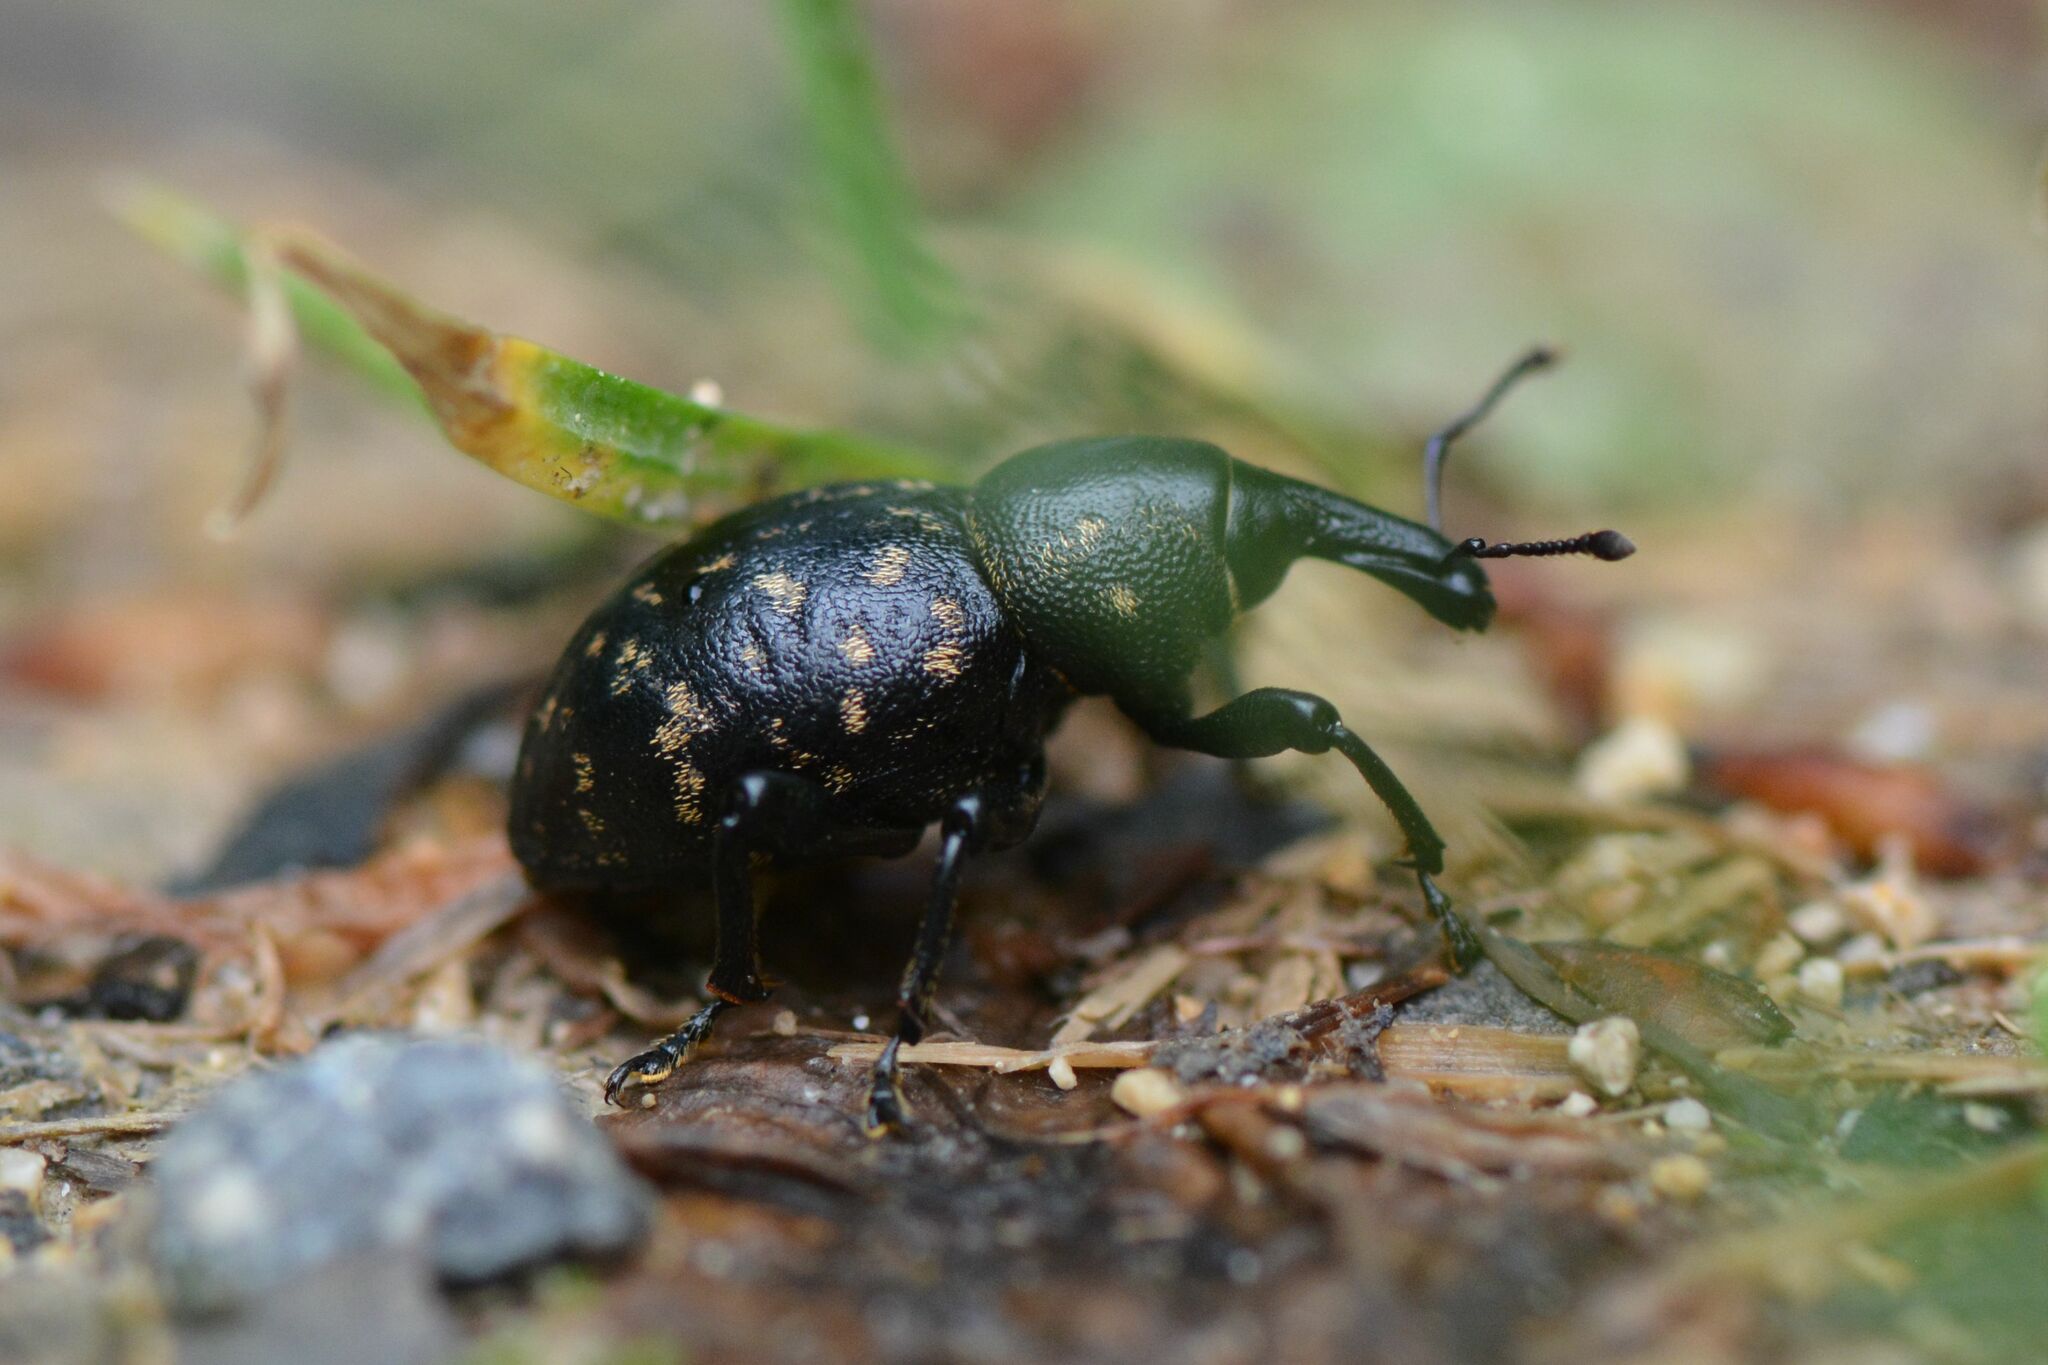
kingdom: Animalia
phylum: Arthropoda
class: Insecta
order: Coleoptera
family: Curculionidae
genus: Liparus
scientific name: Liparus germanus
